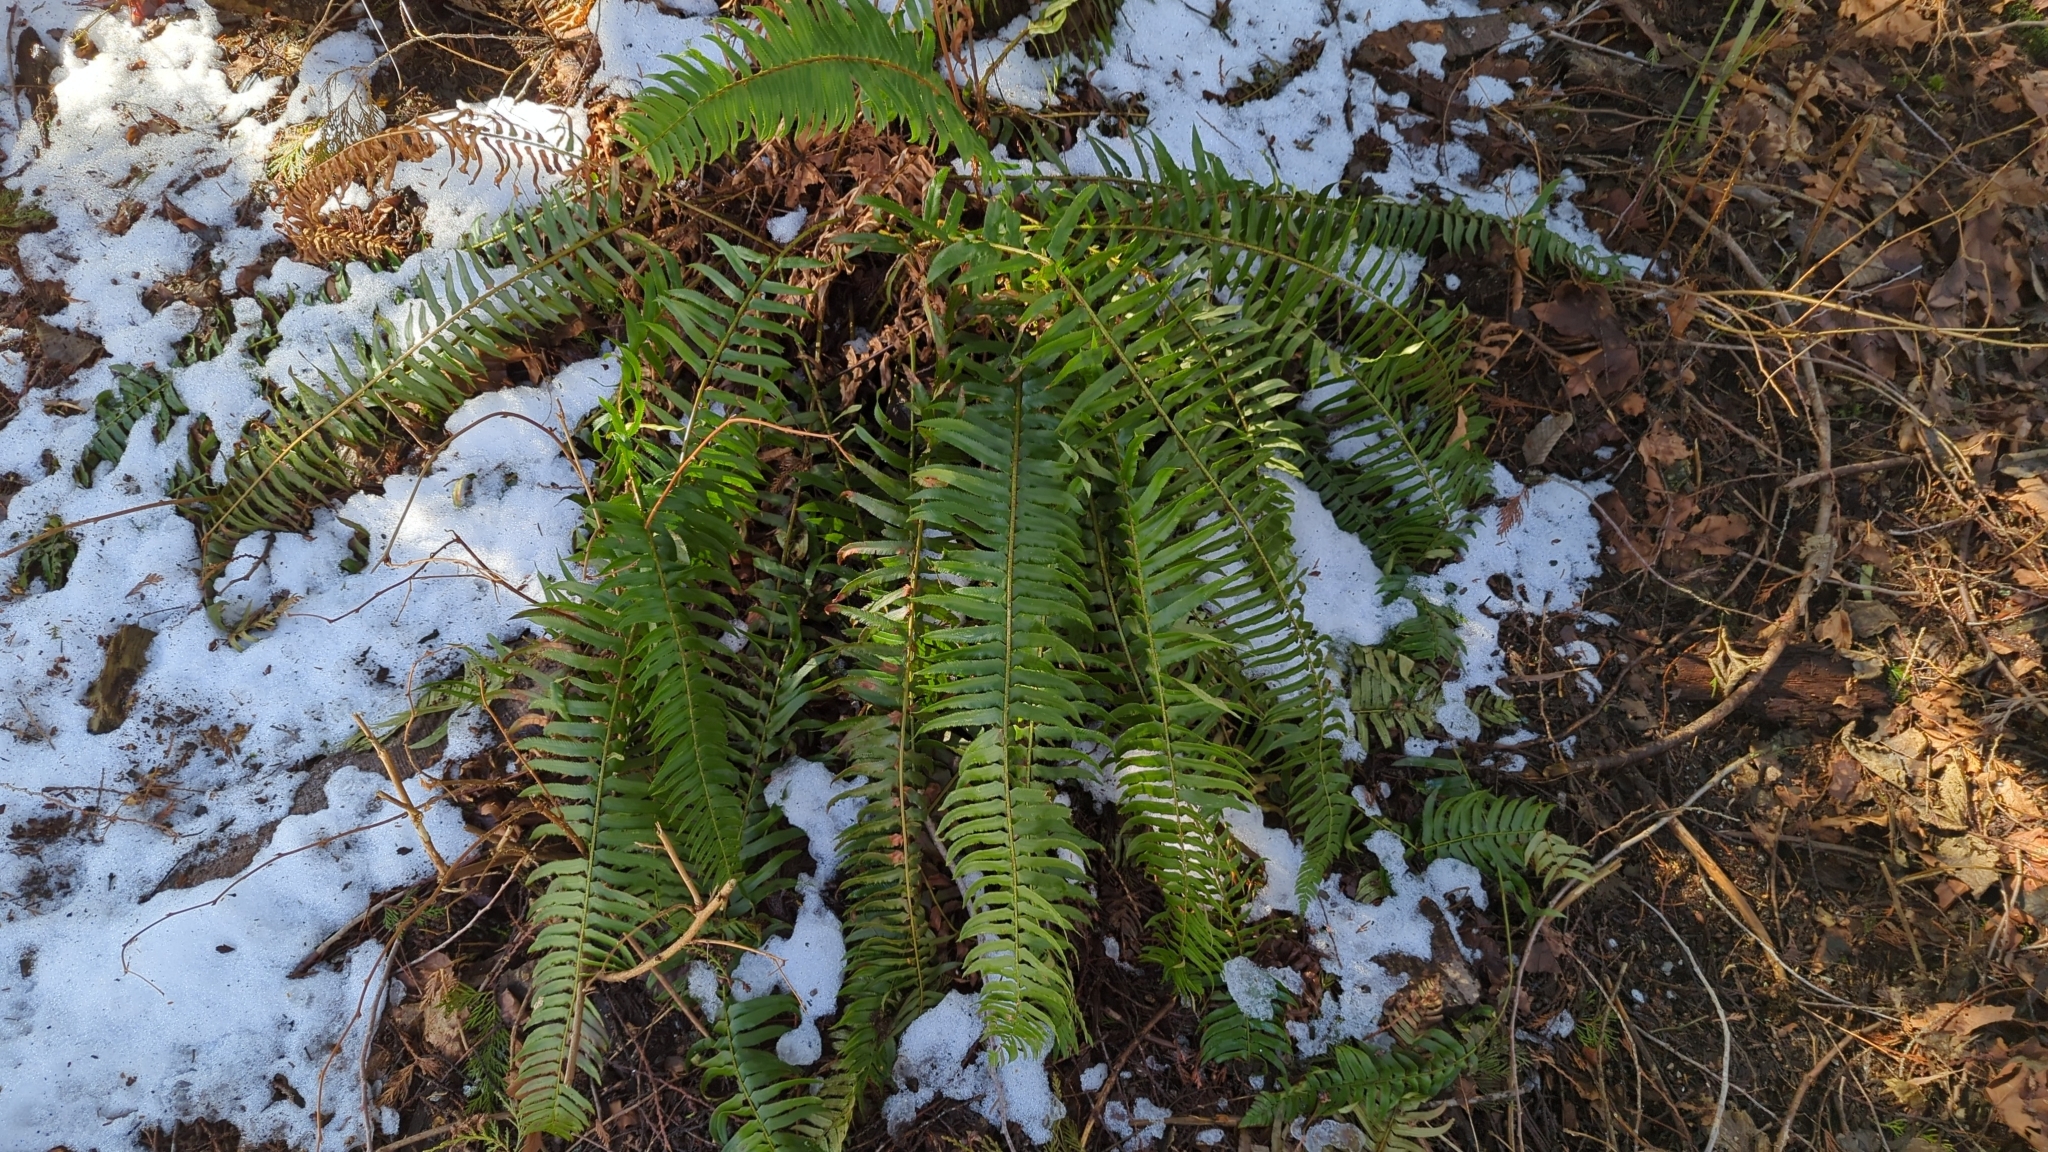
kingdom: Plantae
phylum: Tracheophyta
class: Polypodiopsida
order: Polypodiales
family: Dryopteridaceae
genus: Polystichum
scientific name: Polystichum munitum
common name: Western sword-fern
